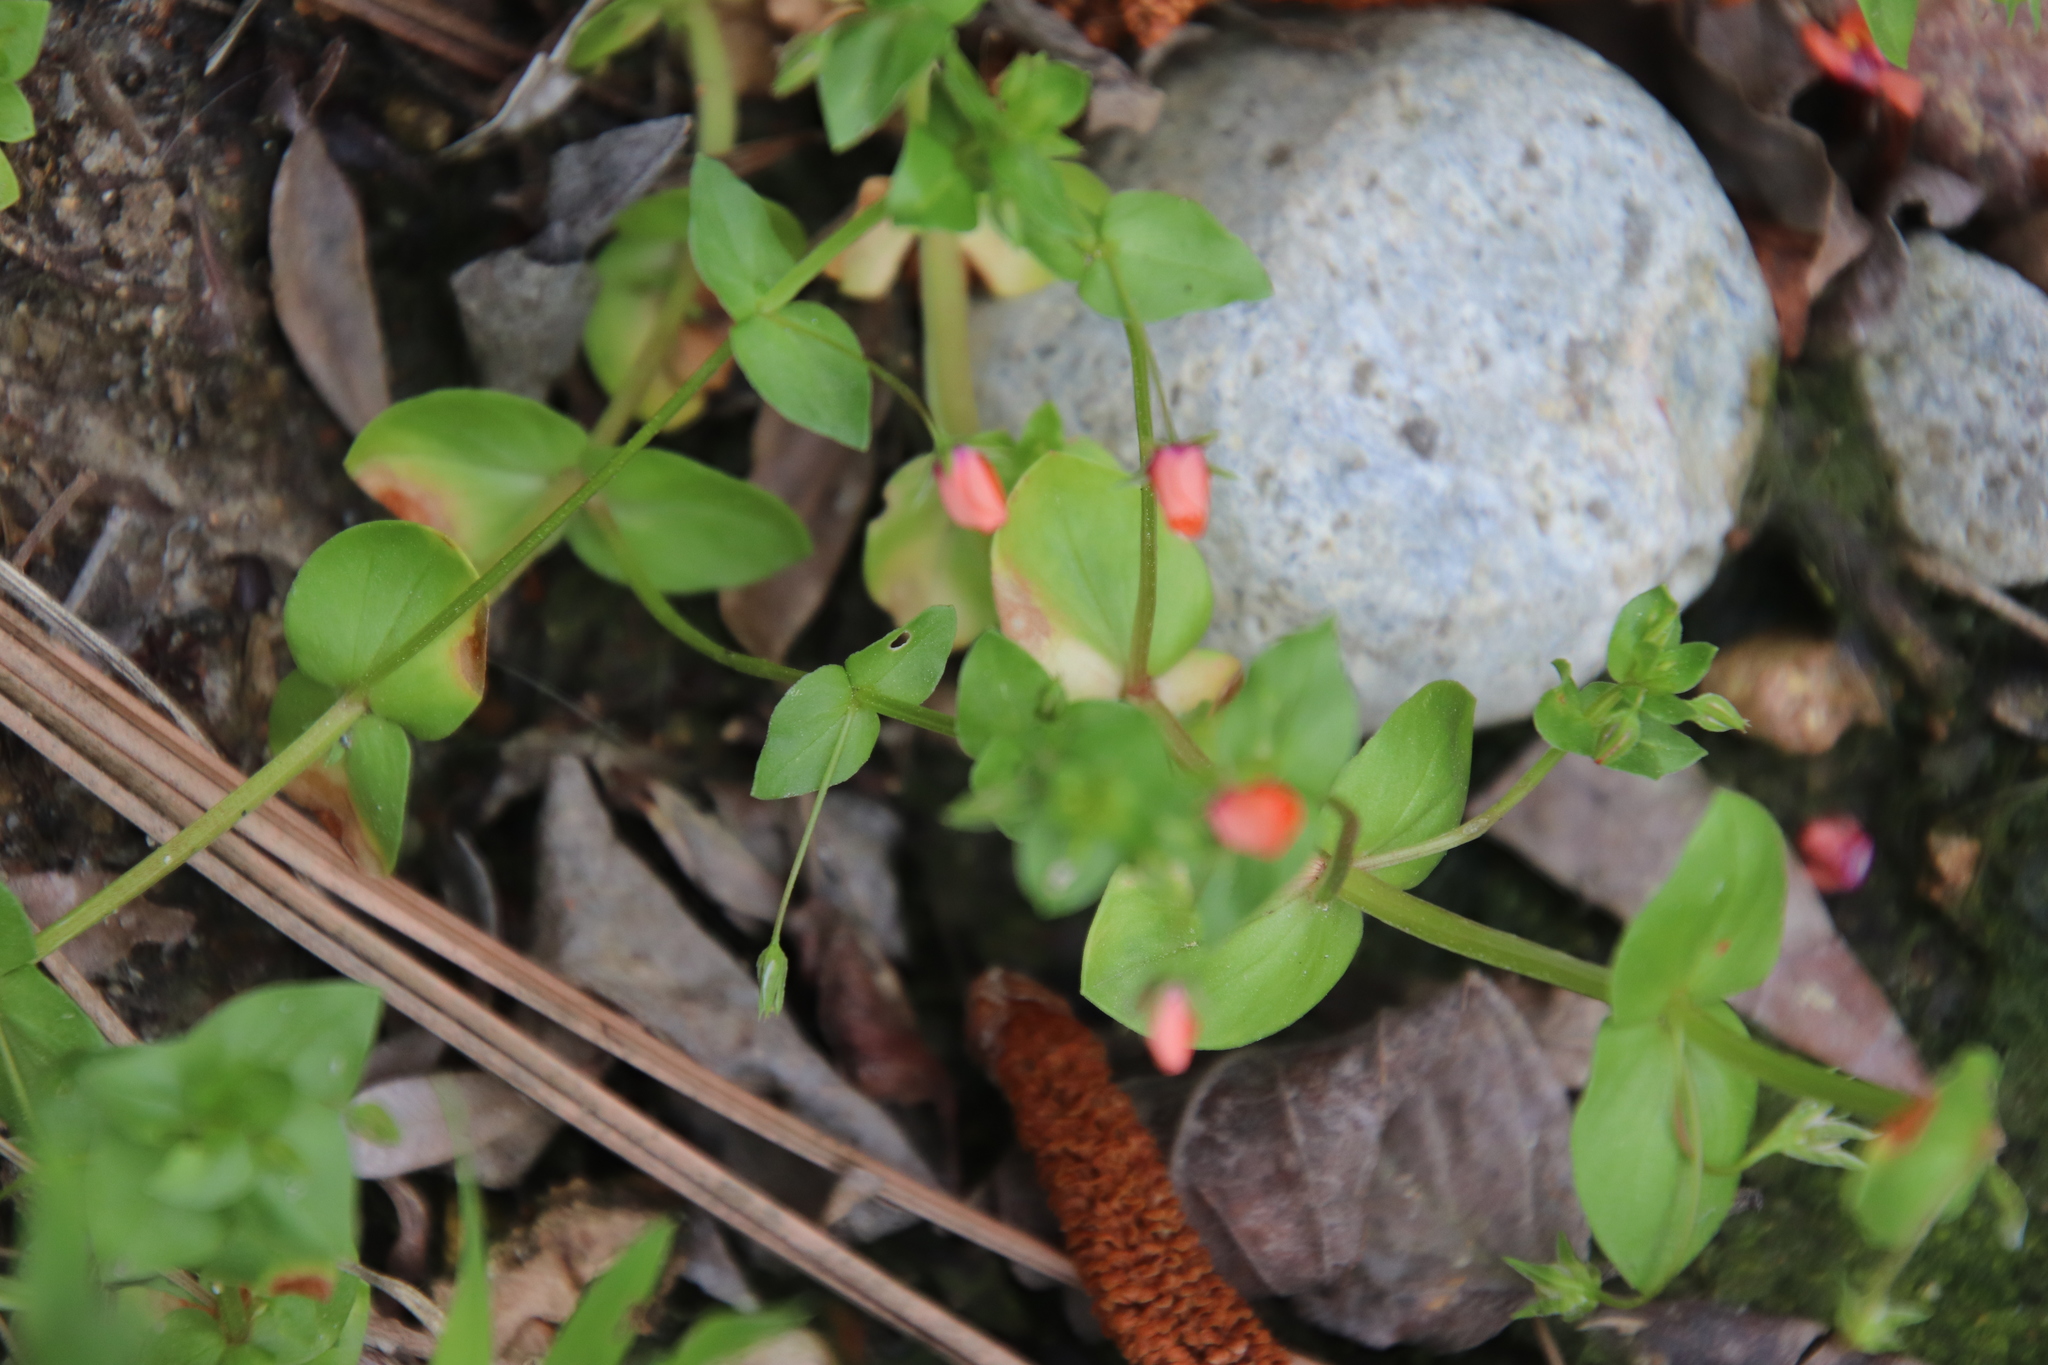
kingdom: Plantae
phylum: Tracheophyta
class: Magnoliopsida
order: Ericales
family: Primulaceae
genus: Lysimachia
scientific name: Lysimachia arvensis
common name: Scarlet pimpernel
